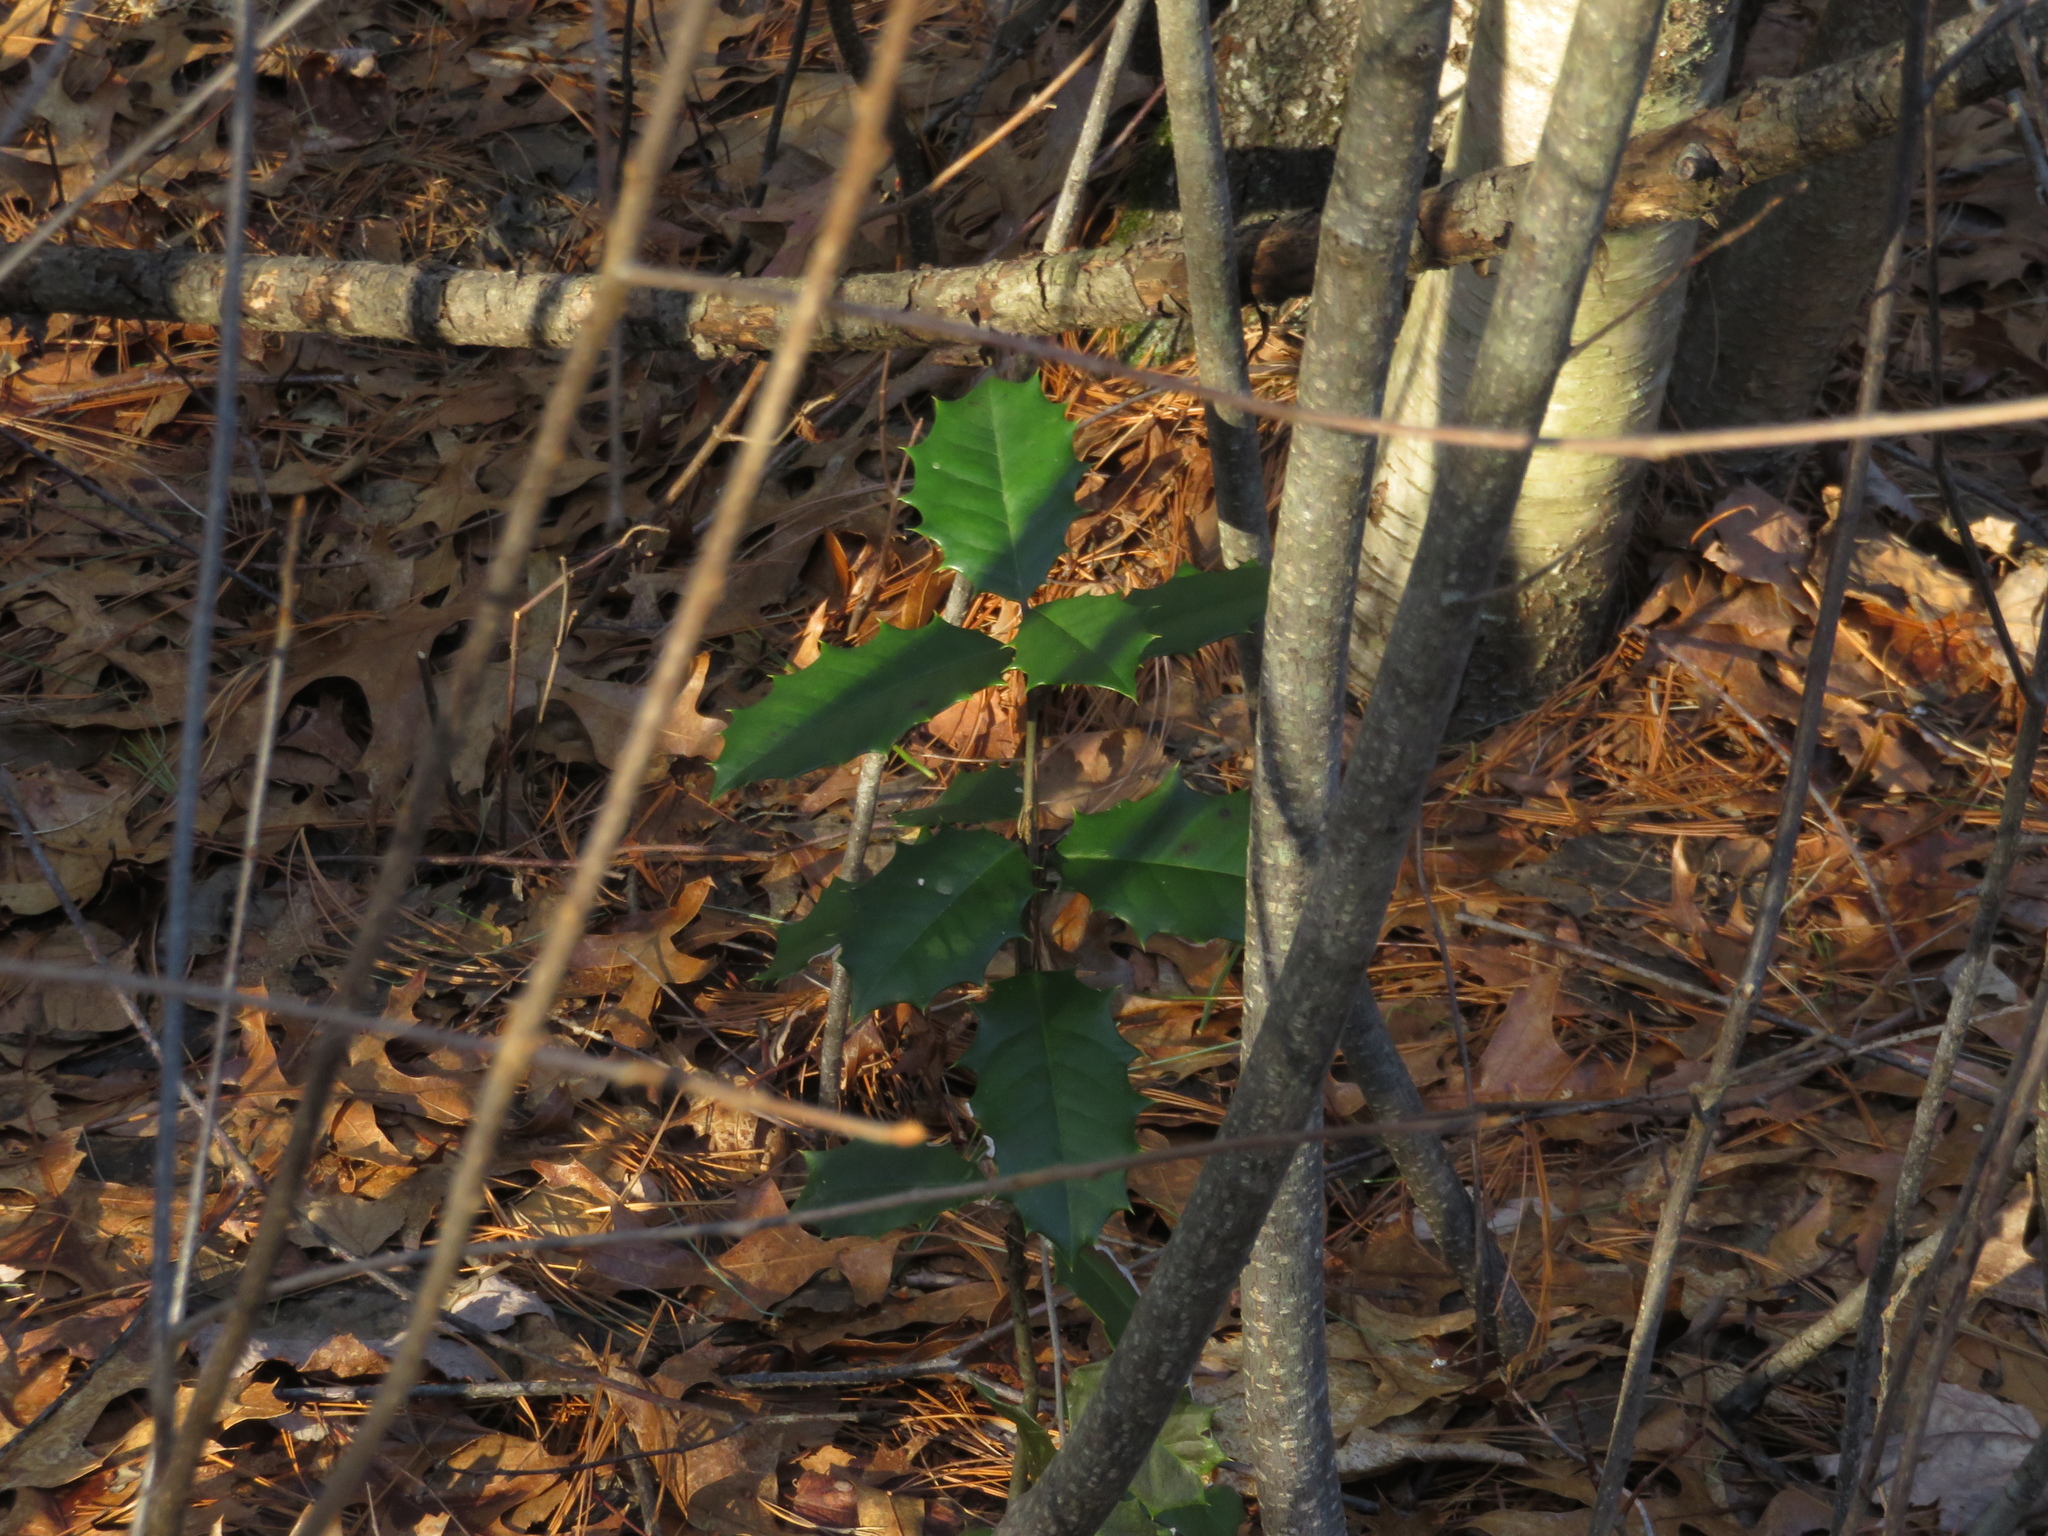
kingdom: Plantae
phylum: Tracheophyta
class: Magnoliopsida
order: Aquifoliales
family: Aquifoliaceae
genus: Ilex
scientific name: Ilex opaca
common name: American holly
